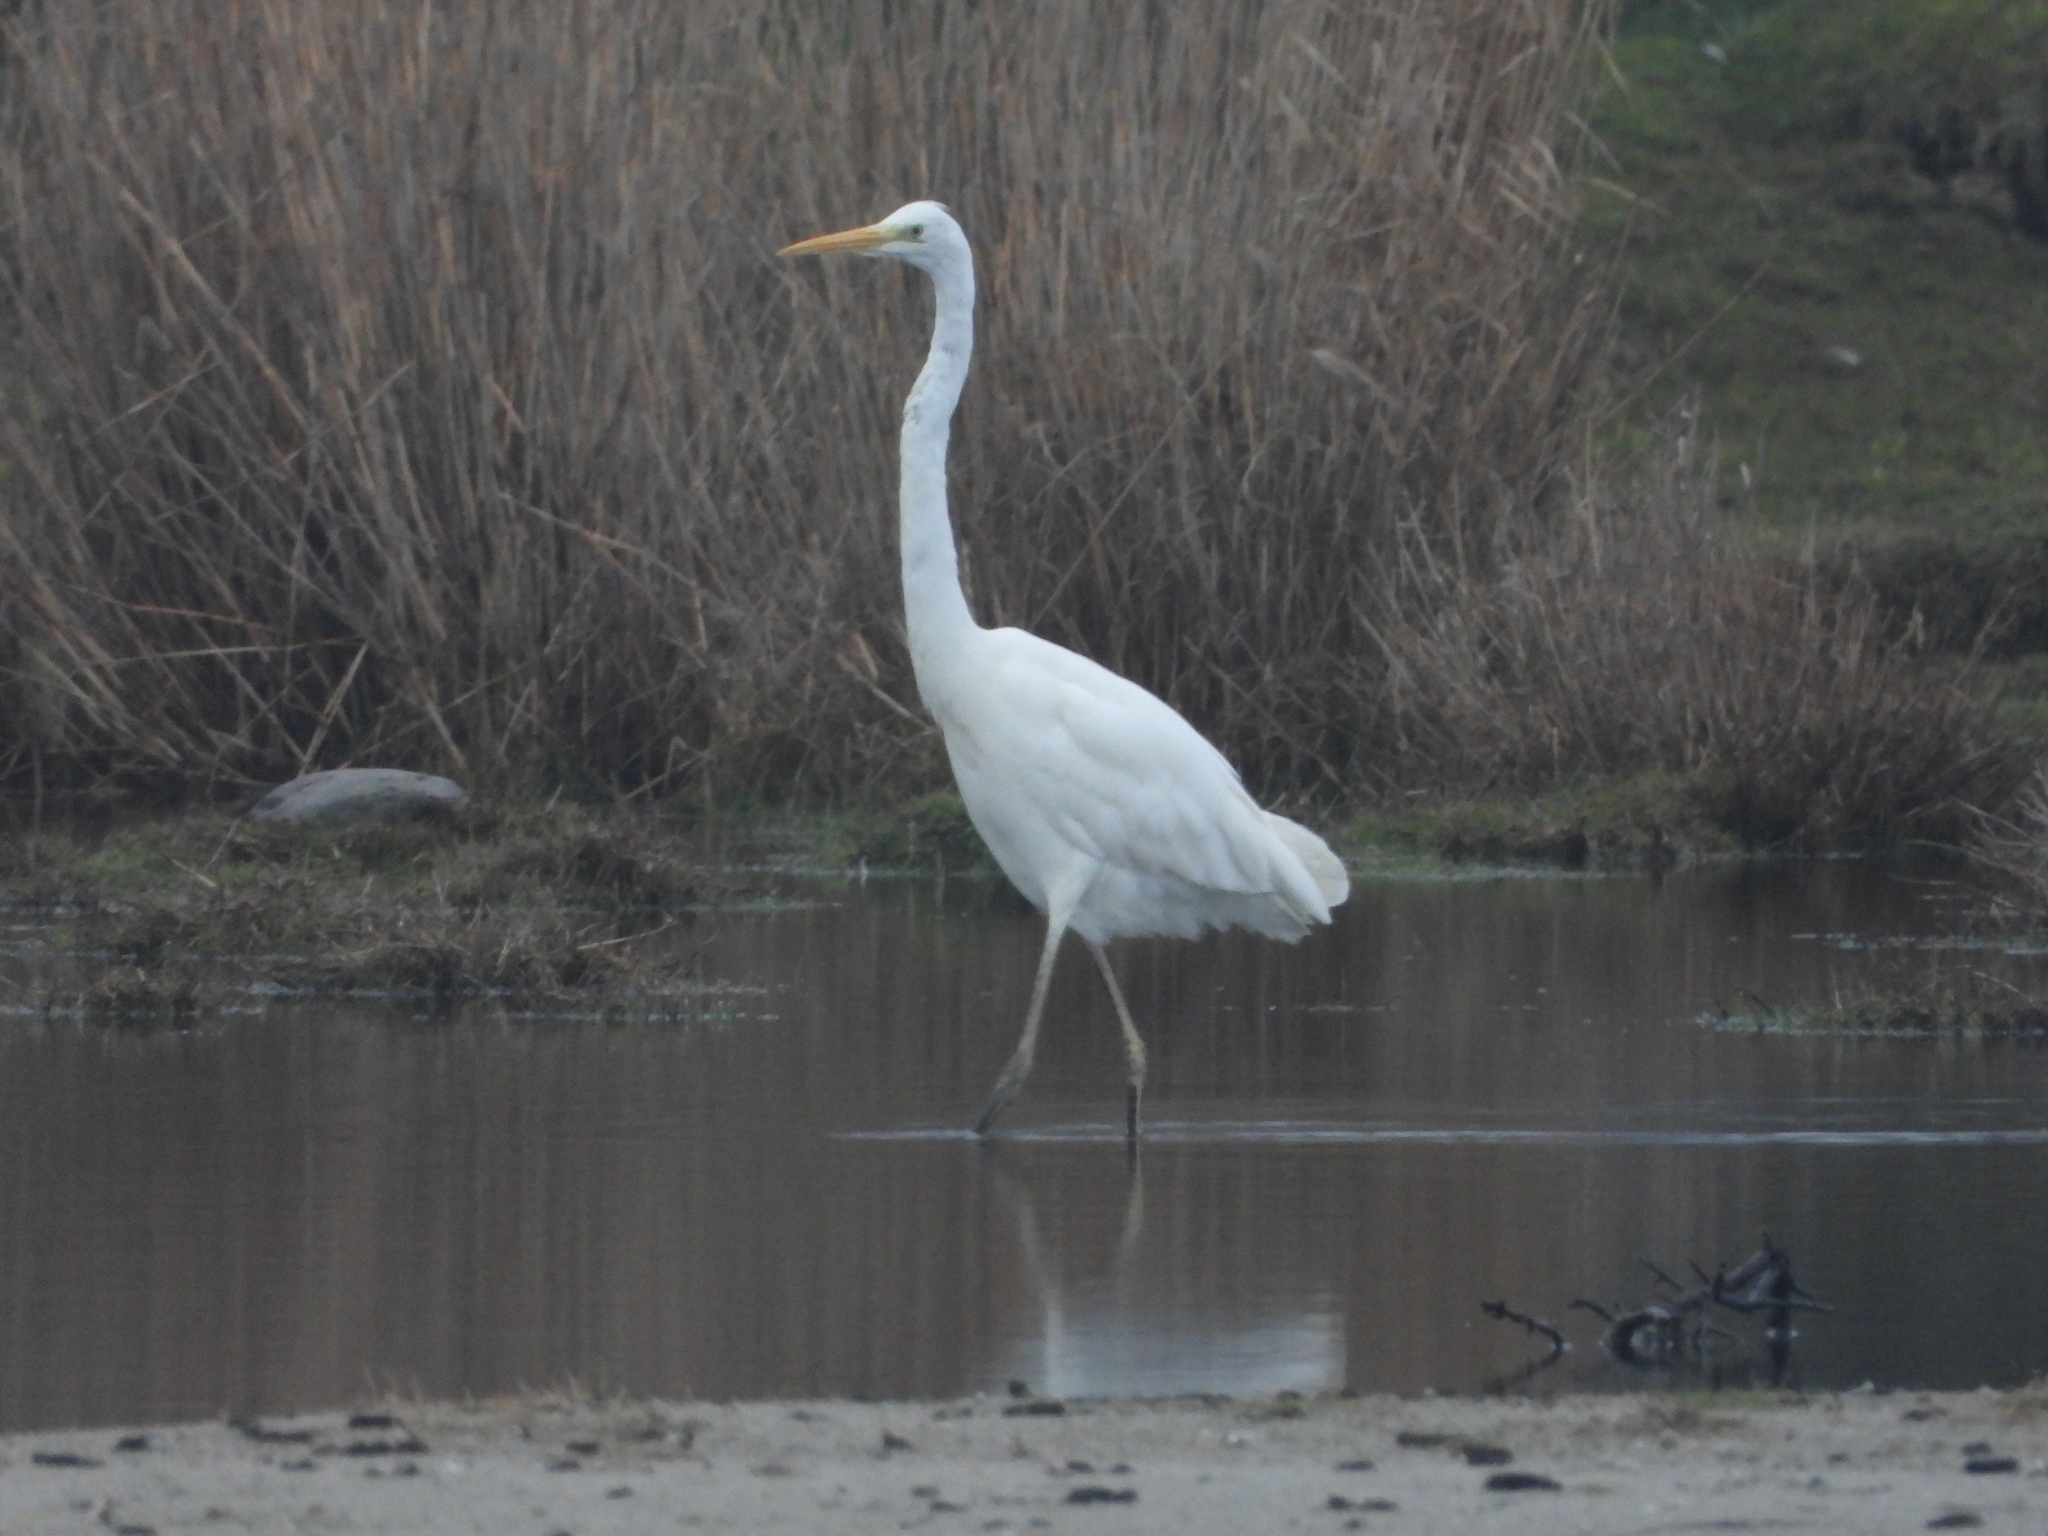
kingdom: Animalia
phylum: Chordata
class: Aves
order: Pelecaniformes
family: Ardeidae
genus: Ardea
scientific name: Ardea alba
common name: Great egret
